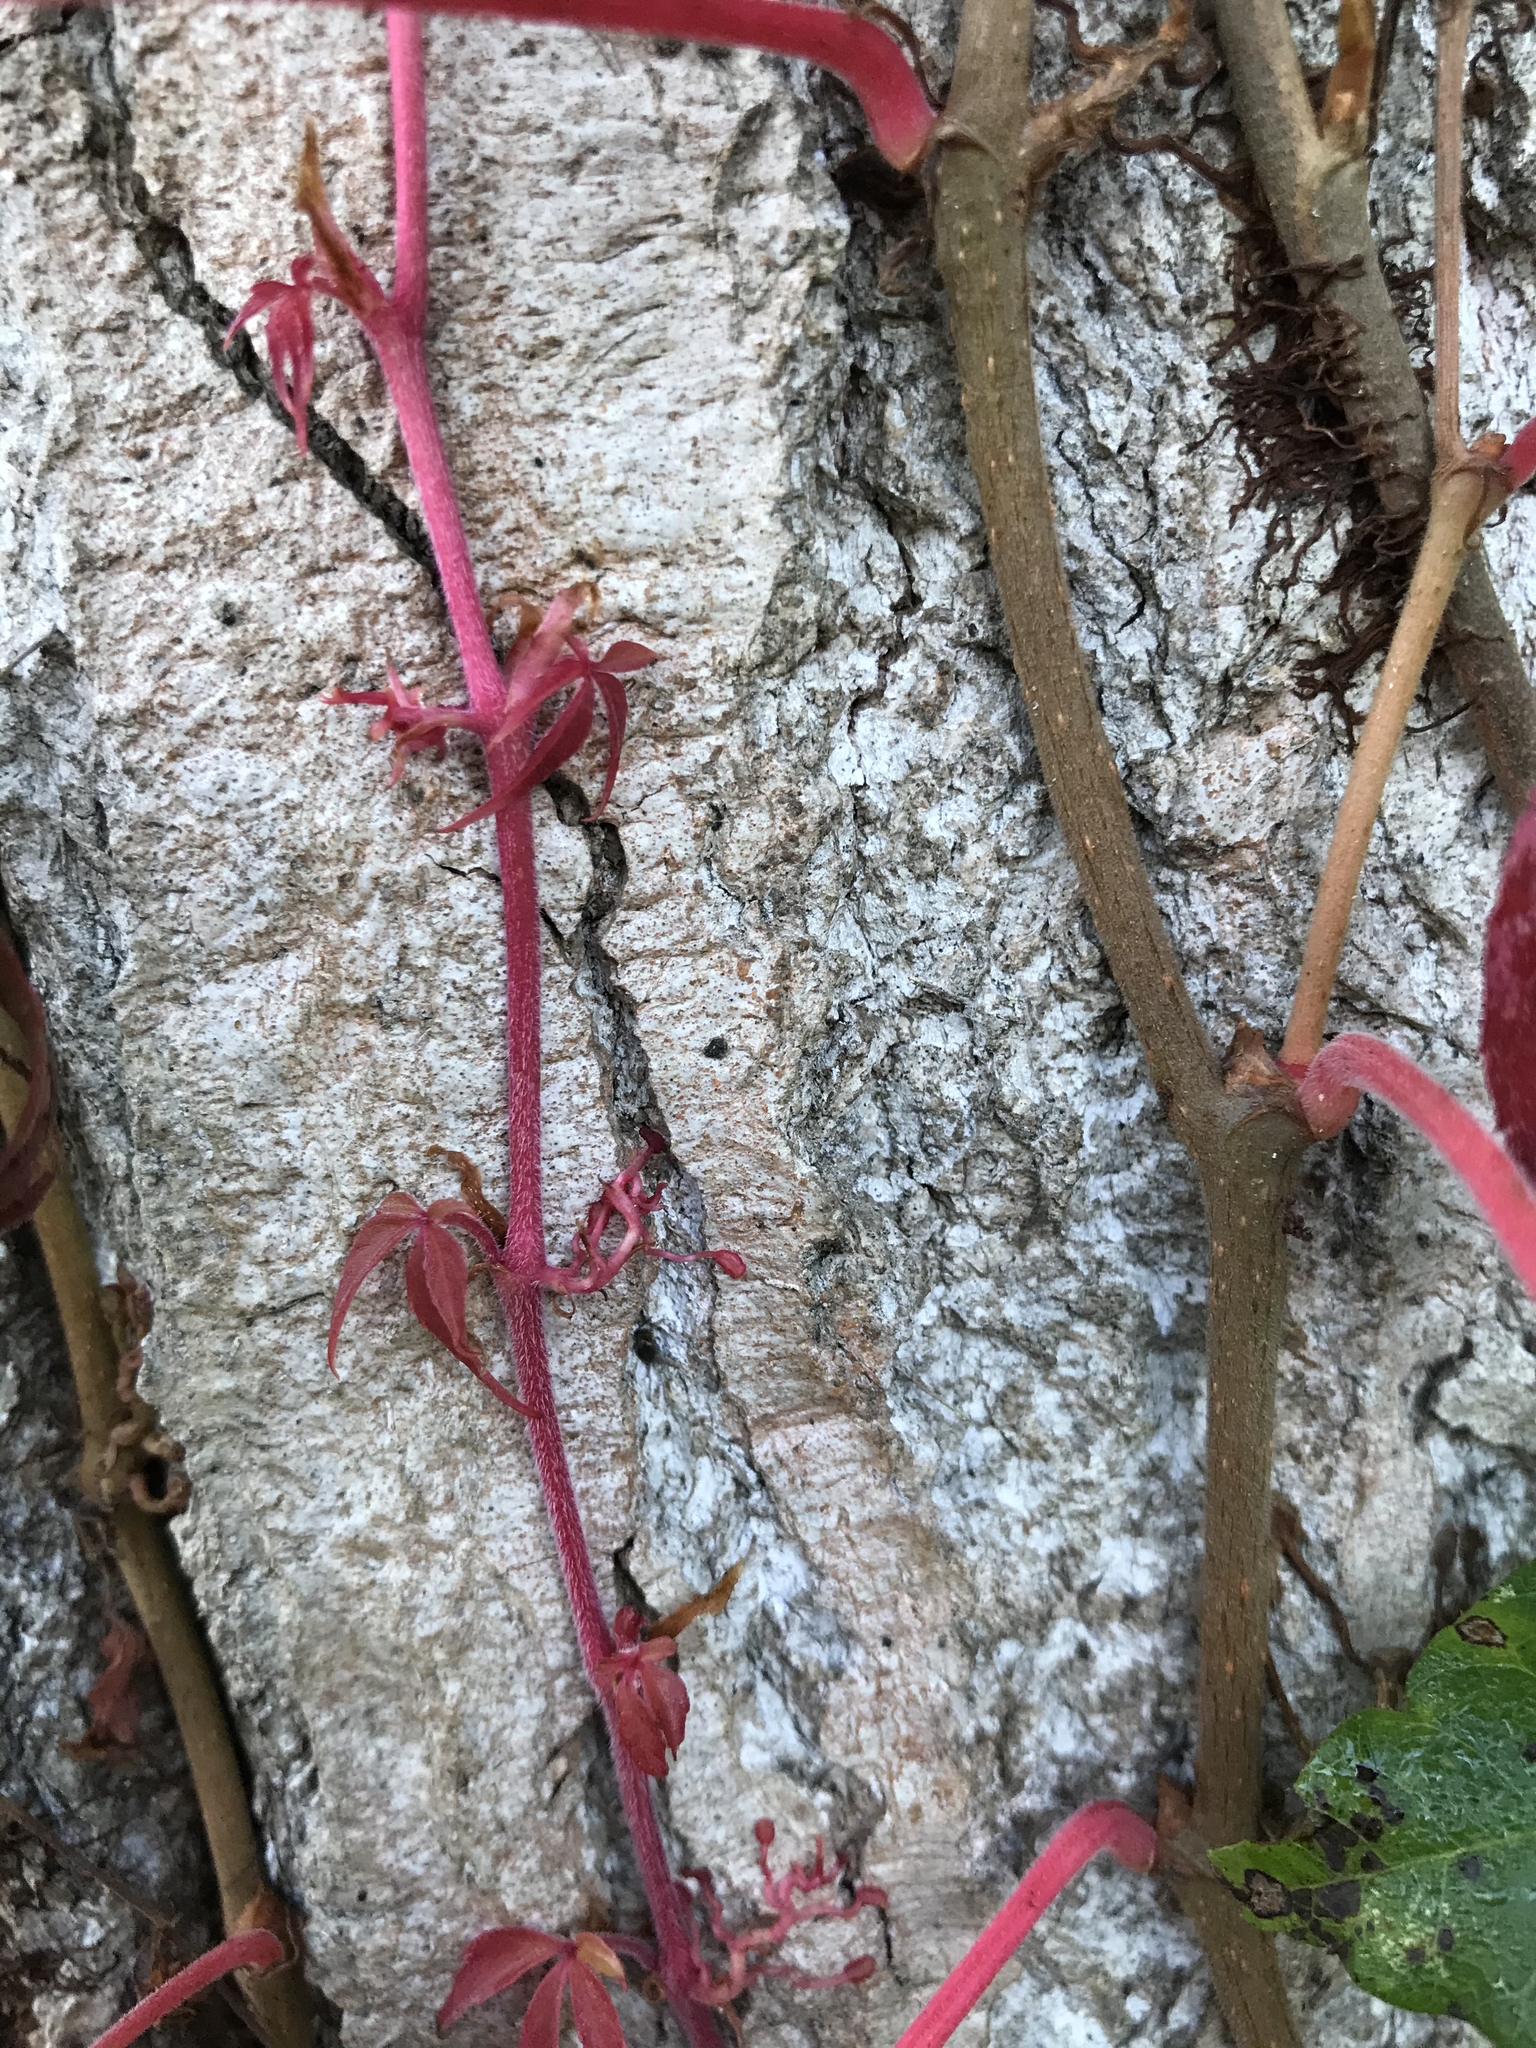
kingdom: Plantae
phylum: Tracheophyta
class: Magnoliopsida
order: Vitales
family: Vitaceae
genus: Parthenocissus
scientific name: Parthenocissus quinquefolia
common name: Virginia-creeper
